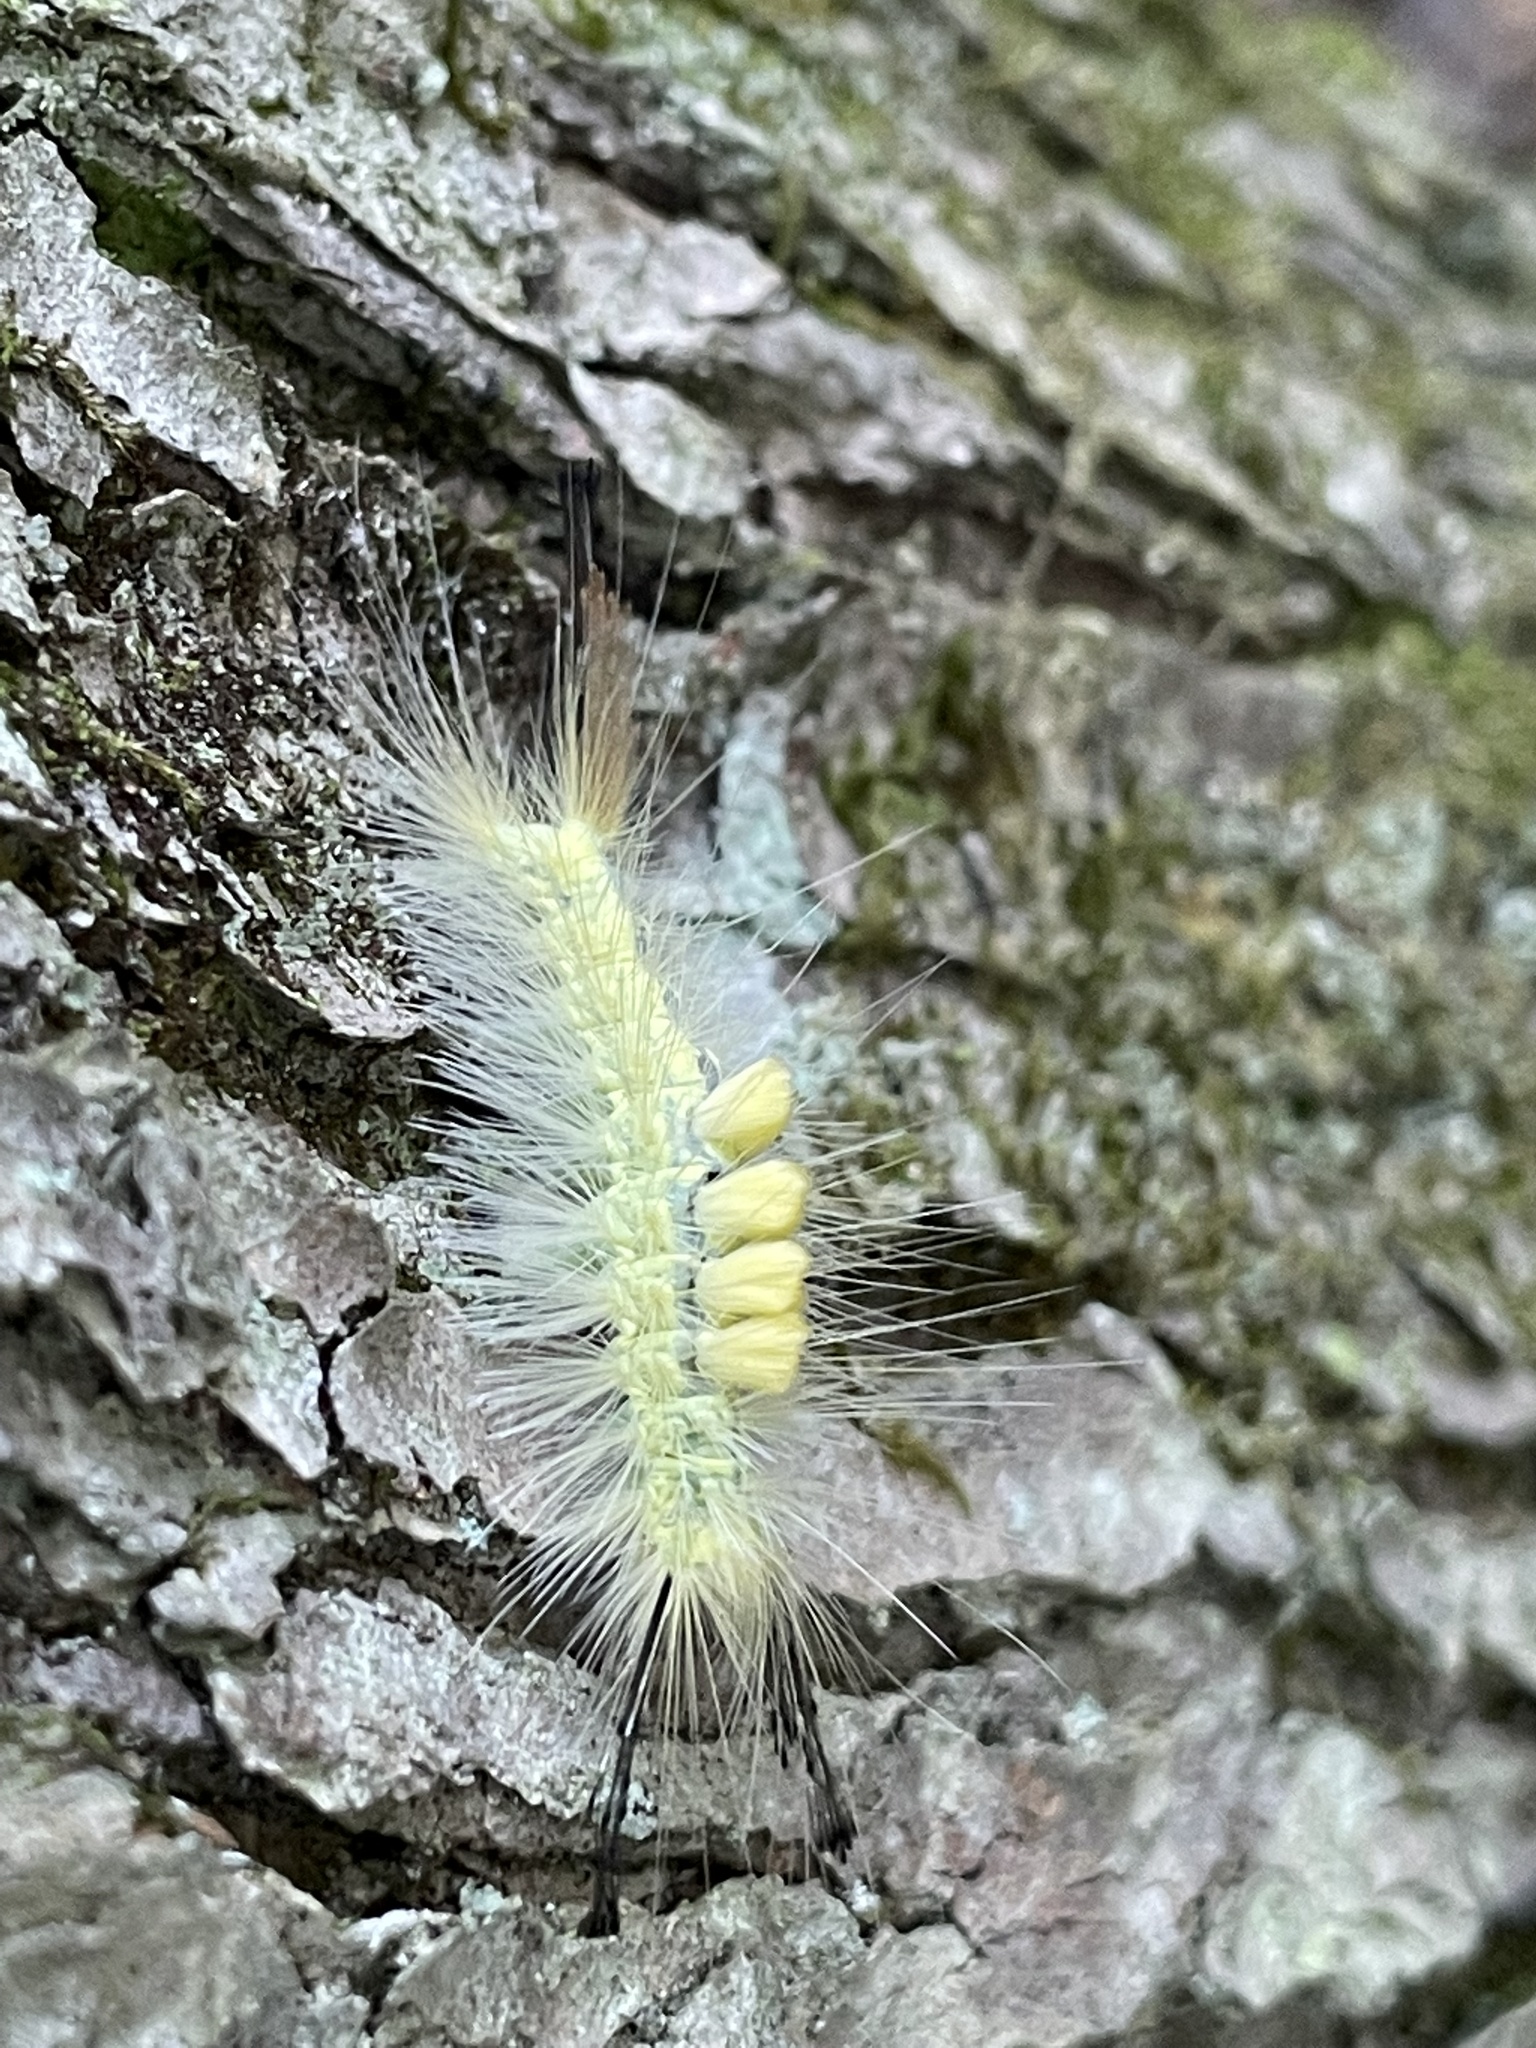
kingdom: Animalia
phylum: Arthropoda
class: Insecta
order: Lepidoptera
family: Erebidae
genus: Orgyia
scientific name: Orgyia definita
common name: Definite tussock moth
